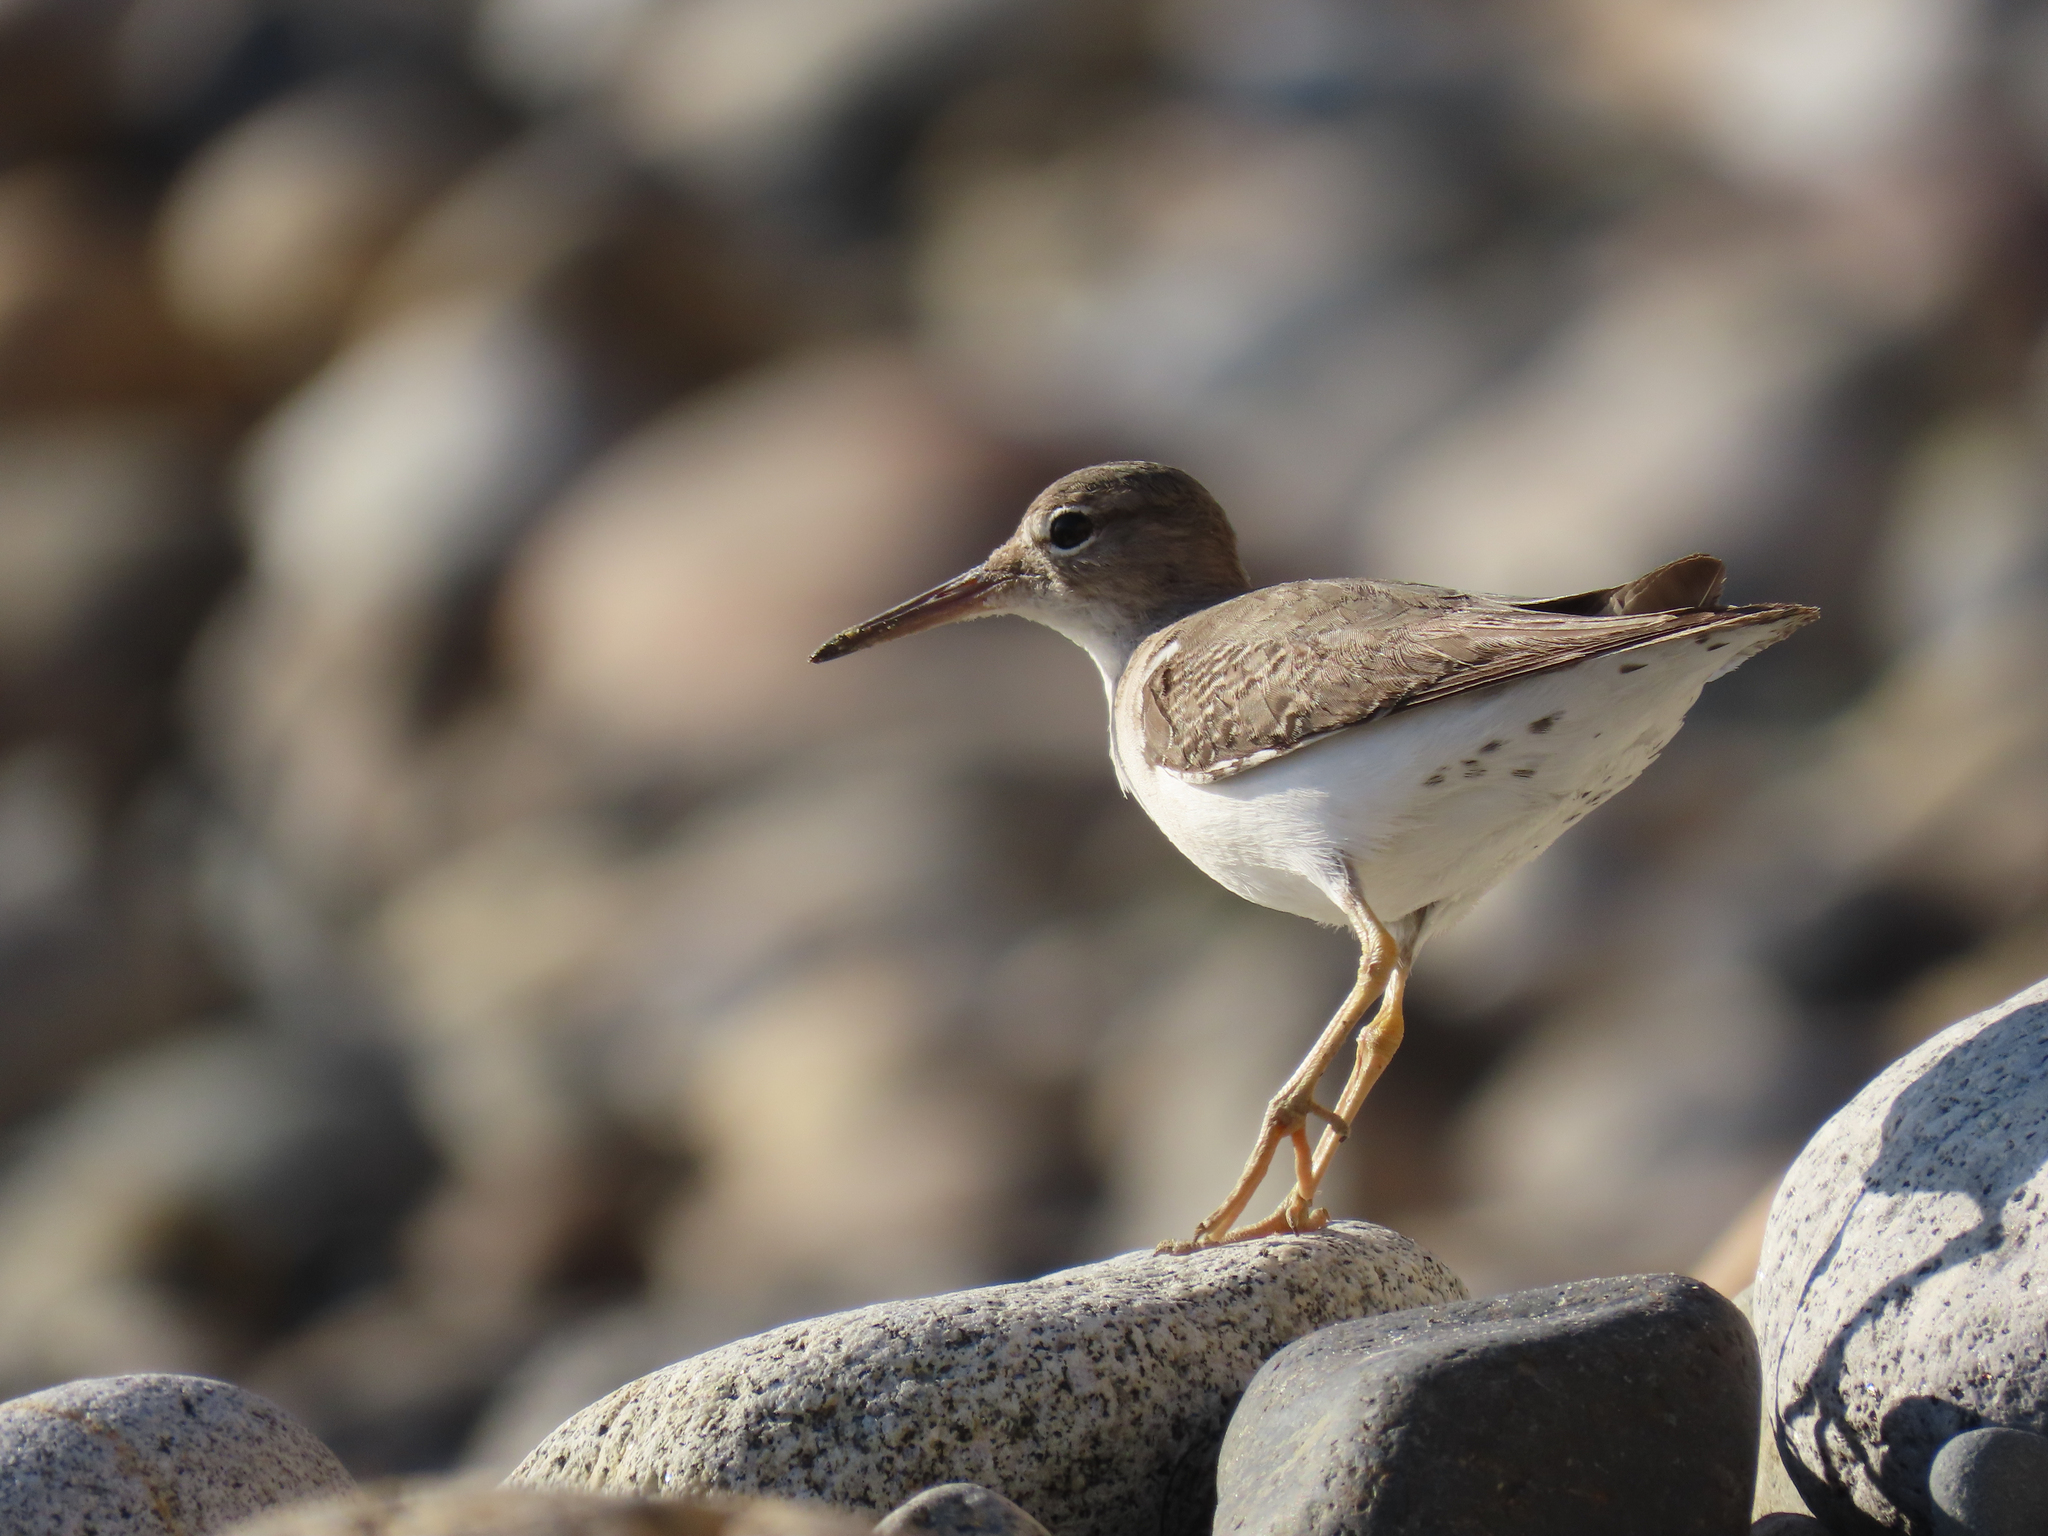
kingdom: Animalia
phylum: Chordata
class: Aves
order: Charadriiformes
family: Scolopacidae
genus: Actitis
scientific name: Actitis macularius
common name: Spotted sandpiper
